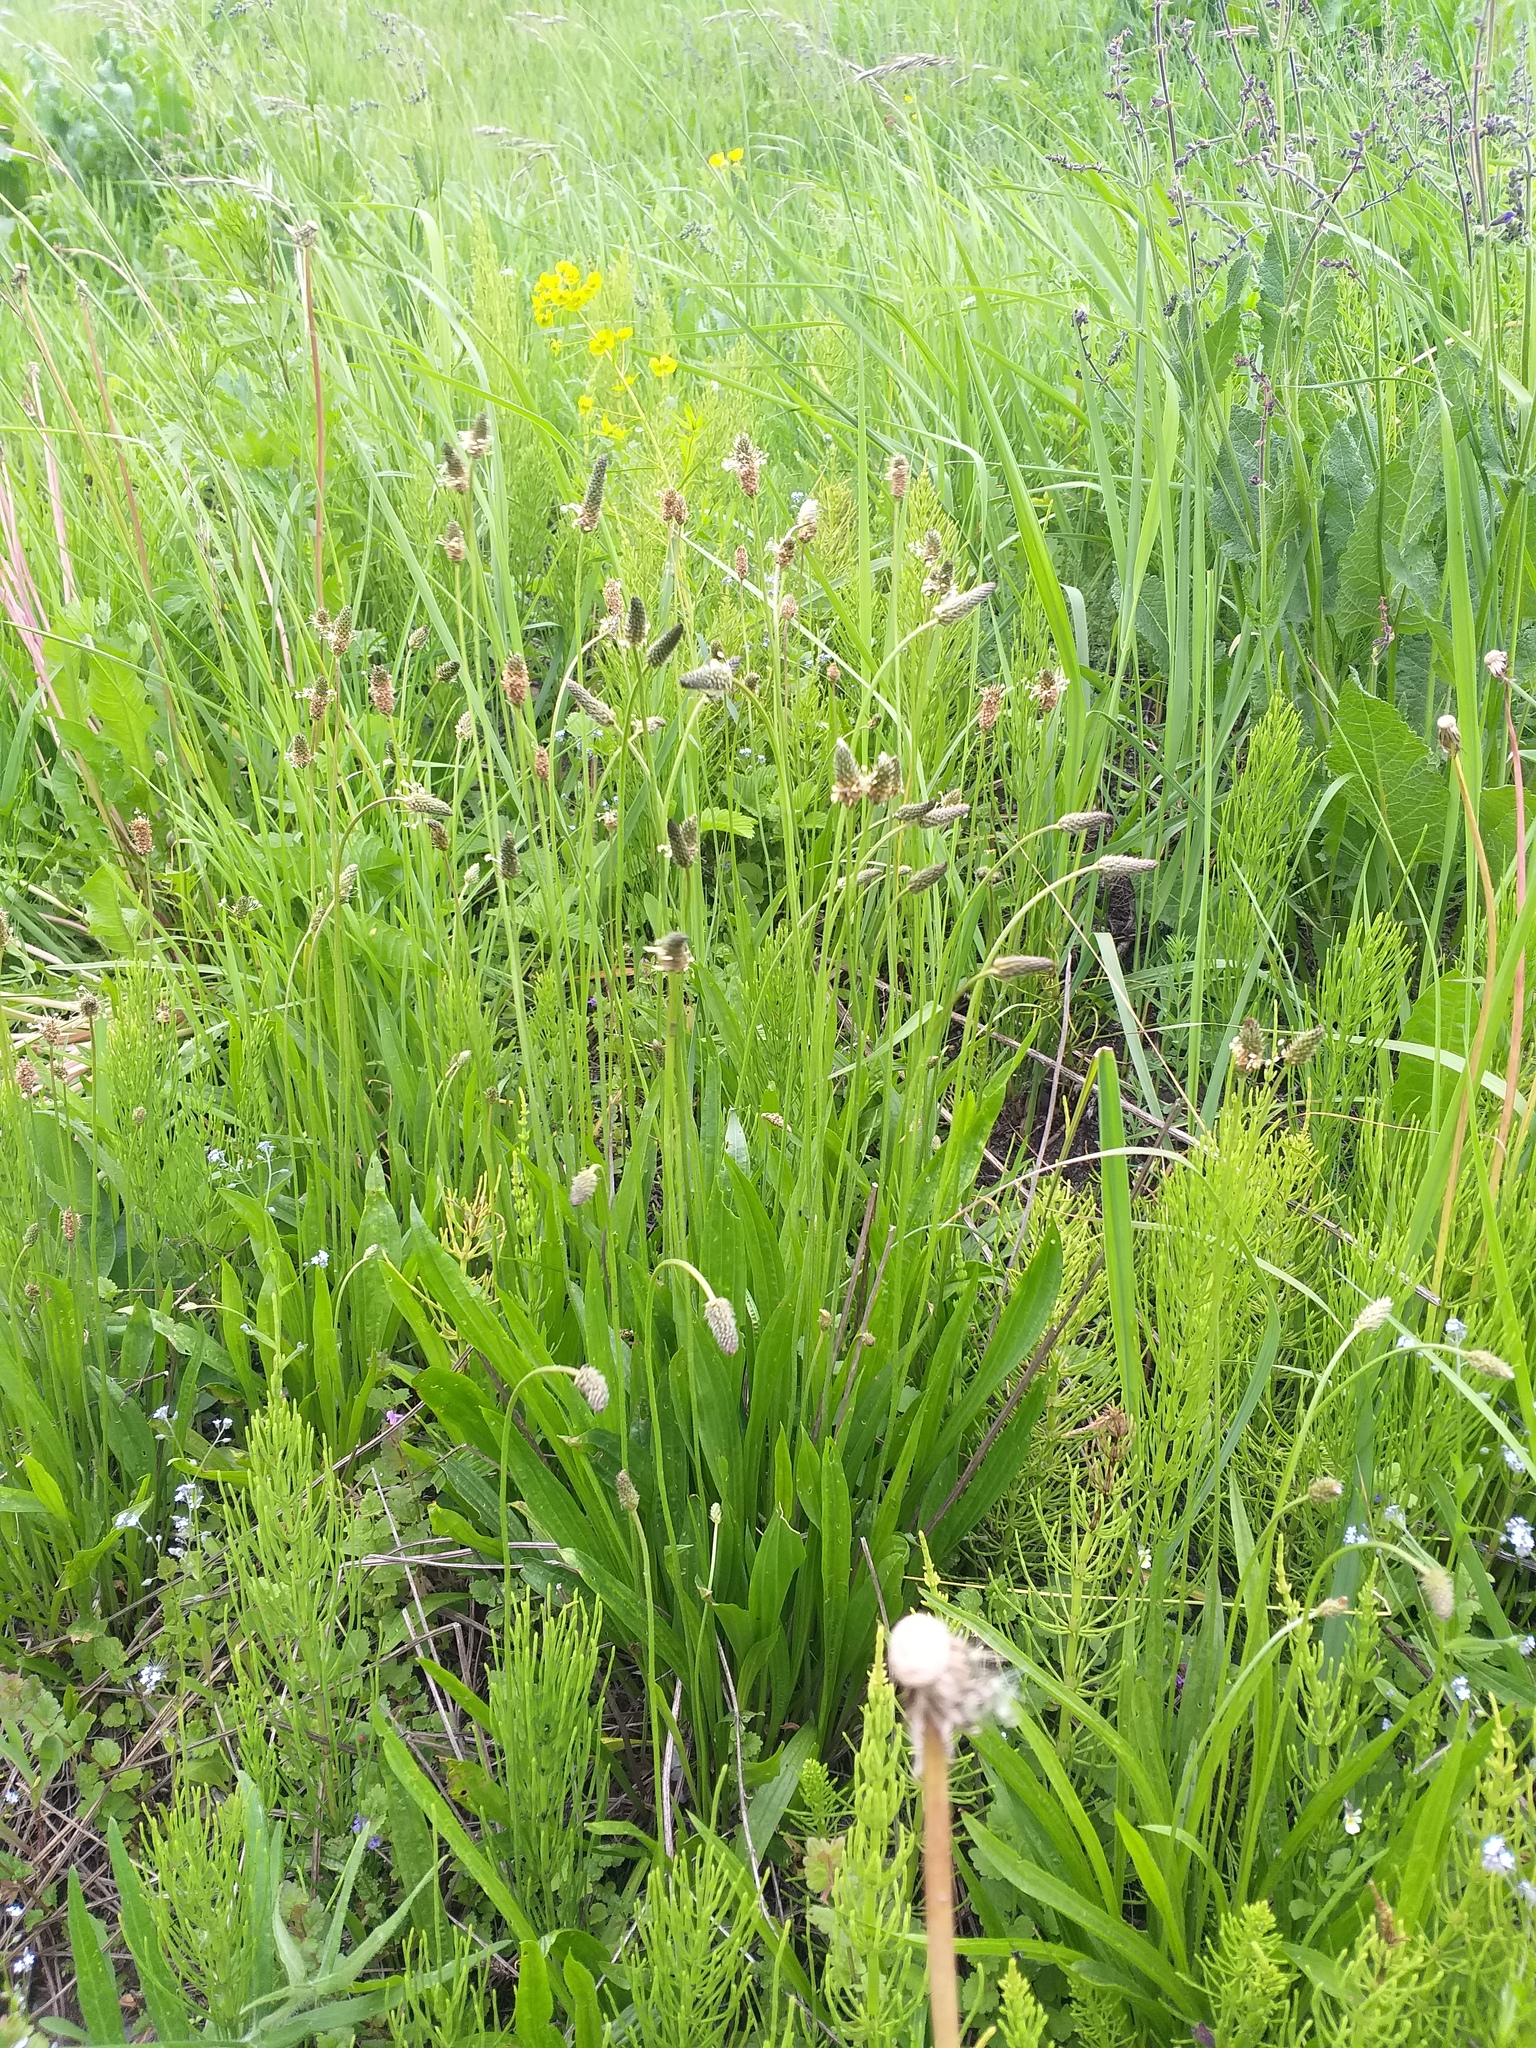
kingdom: Plantae
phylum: Tracheophyta
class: Magnoliopsida
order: Lamiales
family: Plantaginaceae
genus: Plantago
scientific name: Plantago lanceolata
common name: Ribwort plantain
